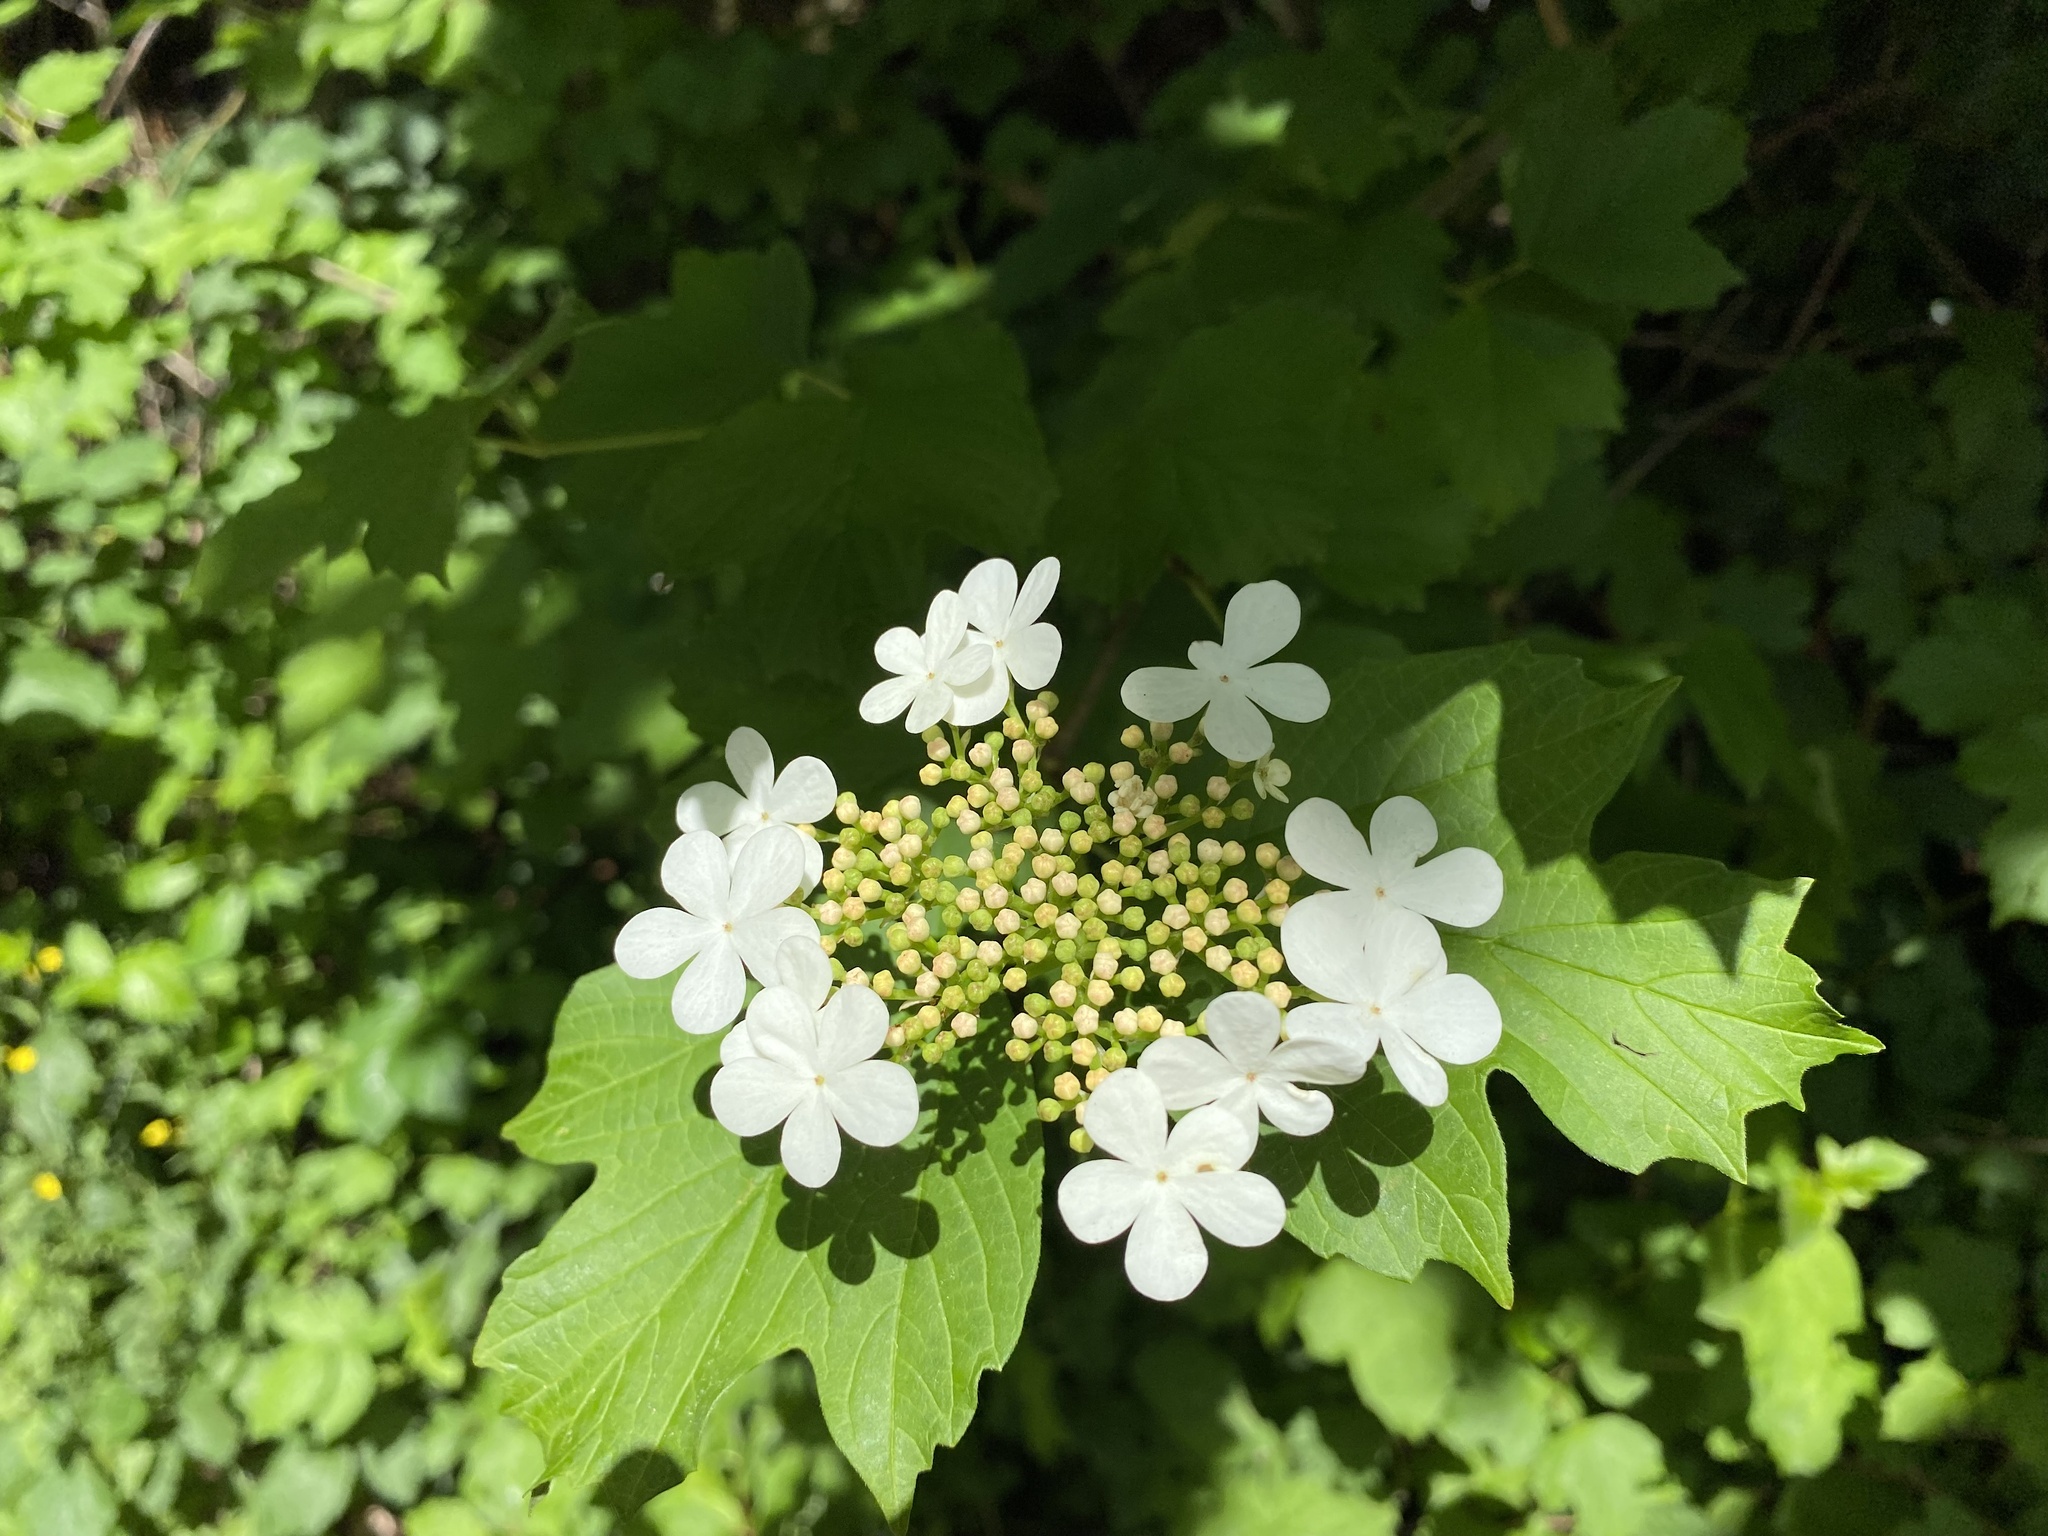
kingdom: Plantae
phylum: Tracheophyta
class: Magnoliopsida
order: Dipsacales
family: Viburnaceae
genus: Viburnum
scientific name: Viburnum opulus
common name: Guelder-rose
